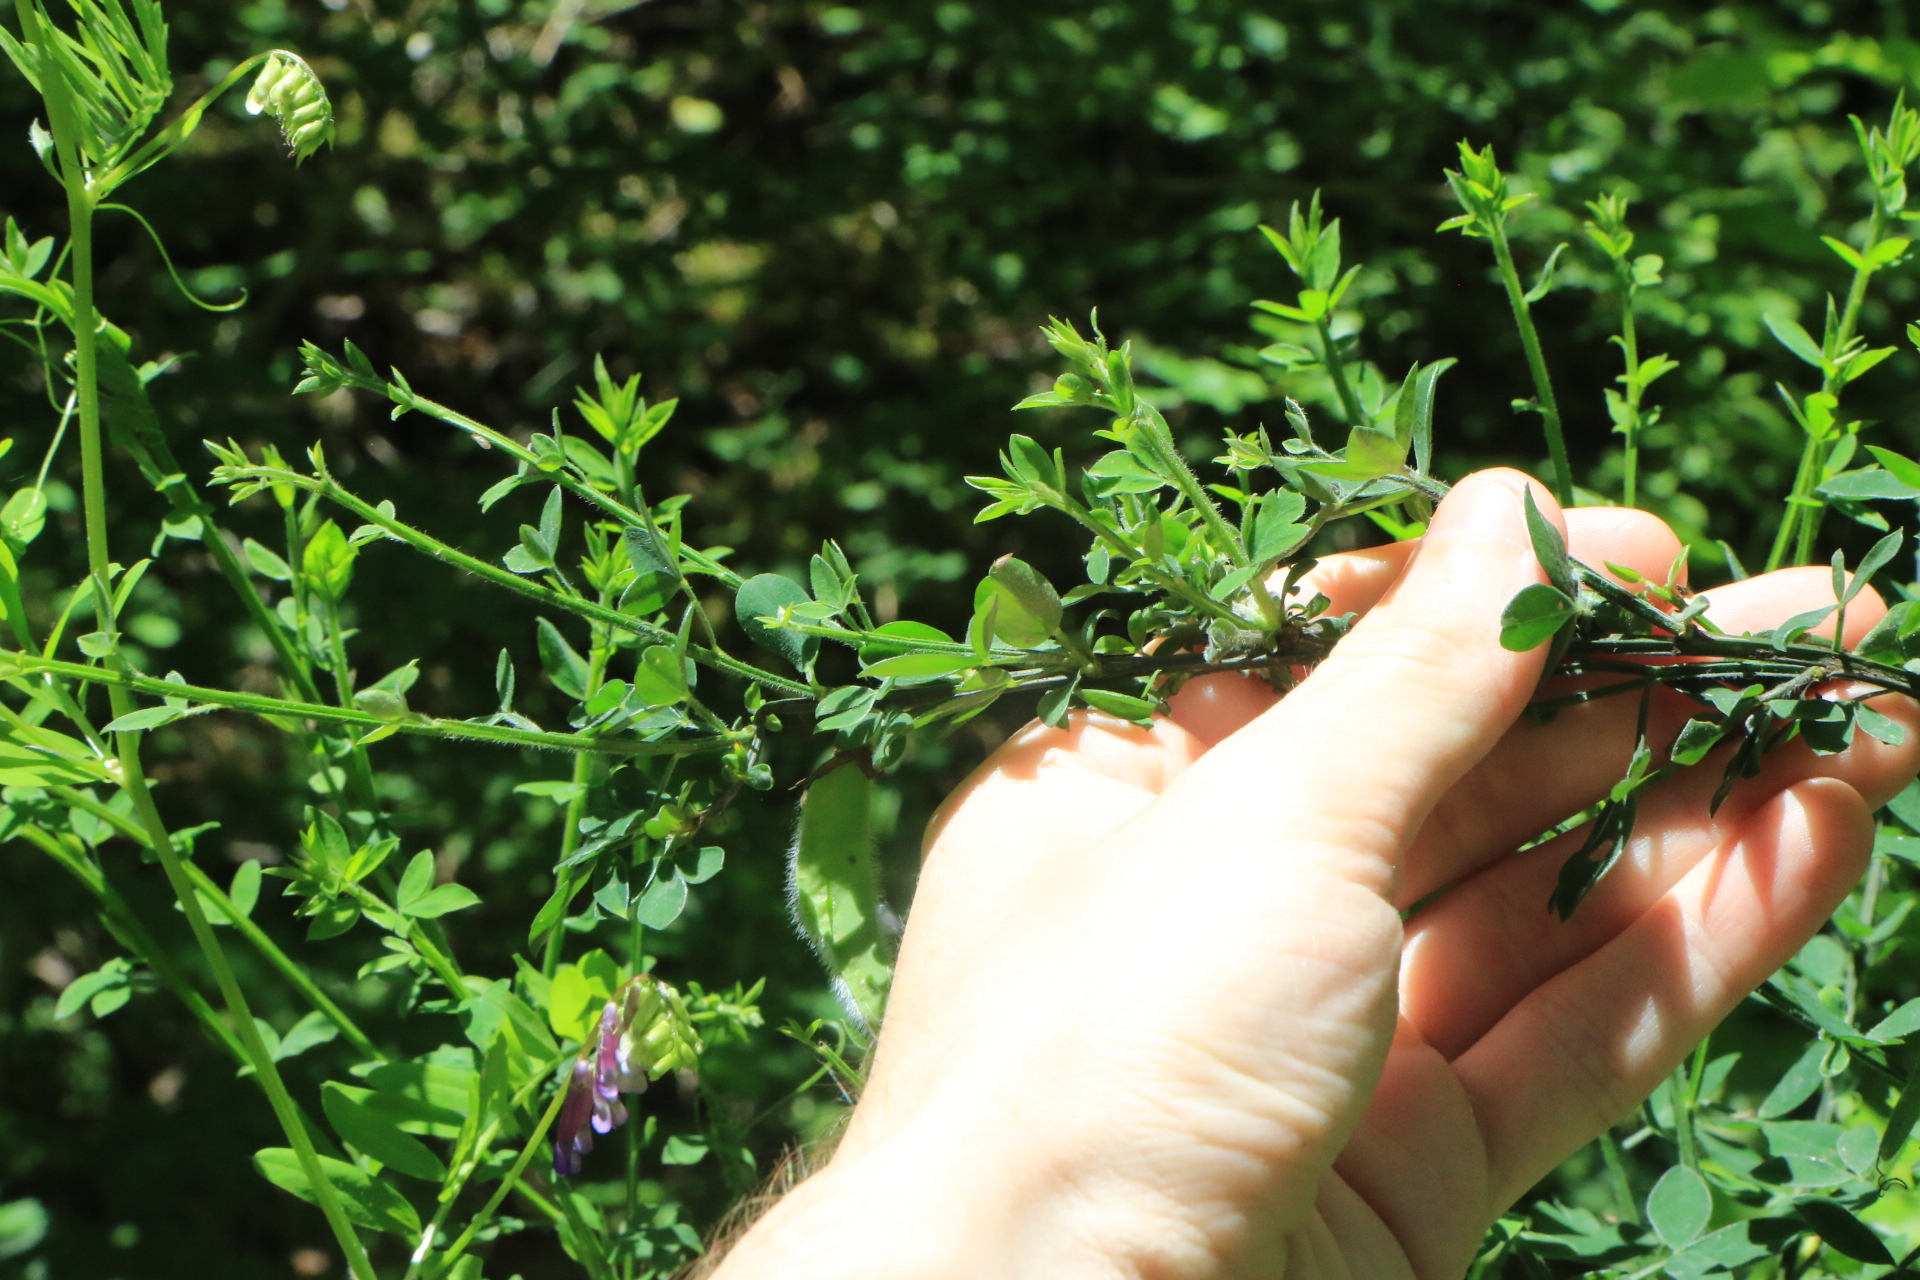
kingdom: Plantae
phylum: Tracheophyta
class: Magnoliopsida
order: Fabales
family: Fabaceae
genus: Cytisus
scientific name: Cytisus scoparius
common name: Scotch broom
